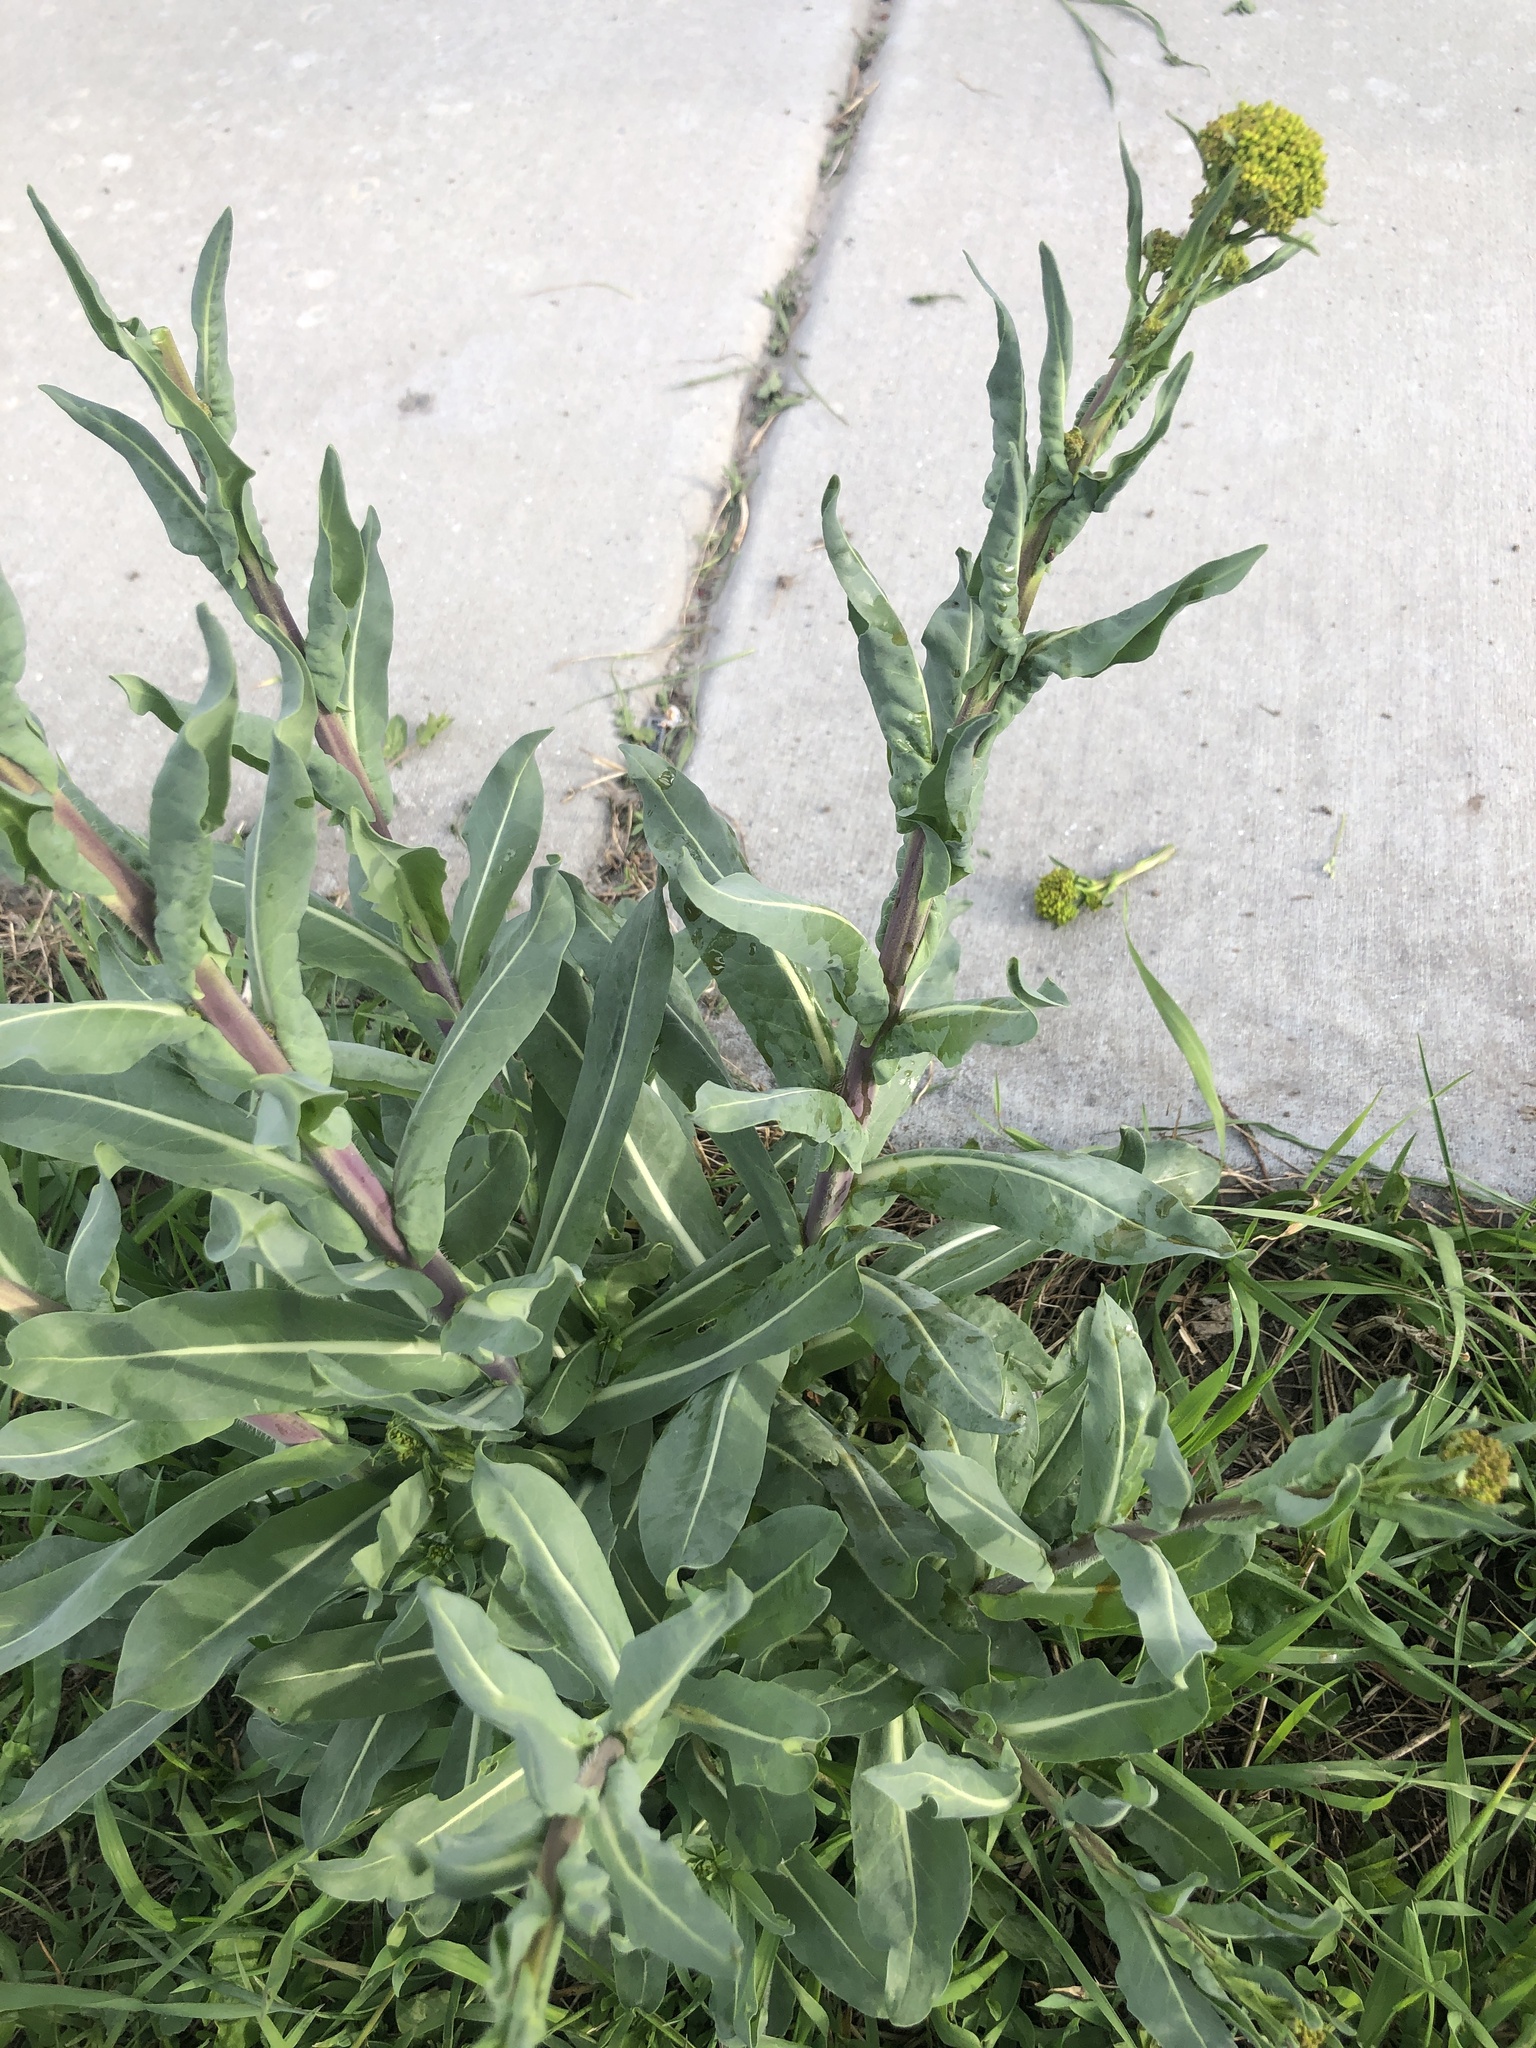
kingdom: Plantae
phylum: Tracheophyta
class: Magnoliopsida
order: Brassicales
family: Brassicaceae
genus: Isatis
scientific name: Isatis tinctoria
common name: Woad
